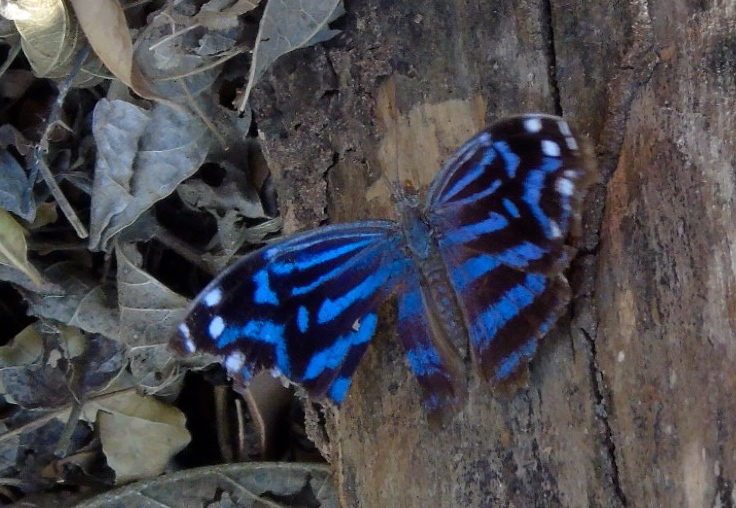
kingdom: Animalia
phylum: Arthropoda
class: Insecta
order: Lepidoptera
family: Nymphalidae
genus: Myscelia
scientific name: Myscelia ethusa
